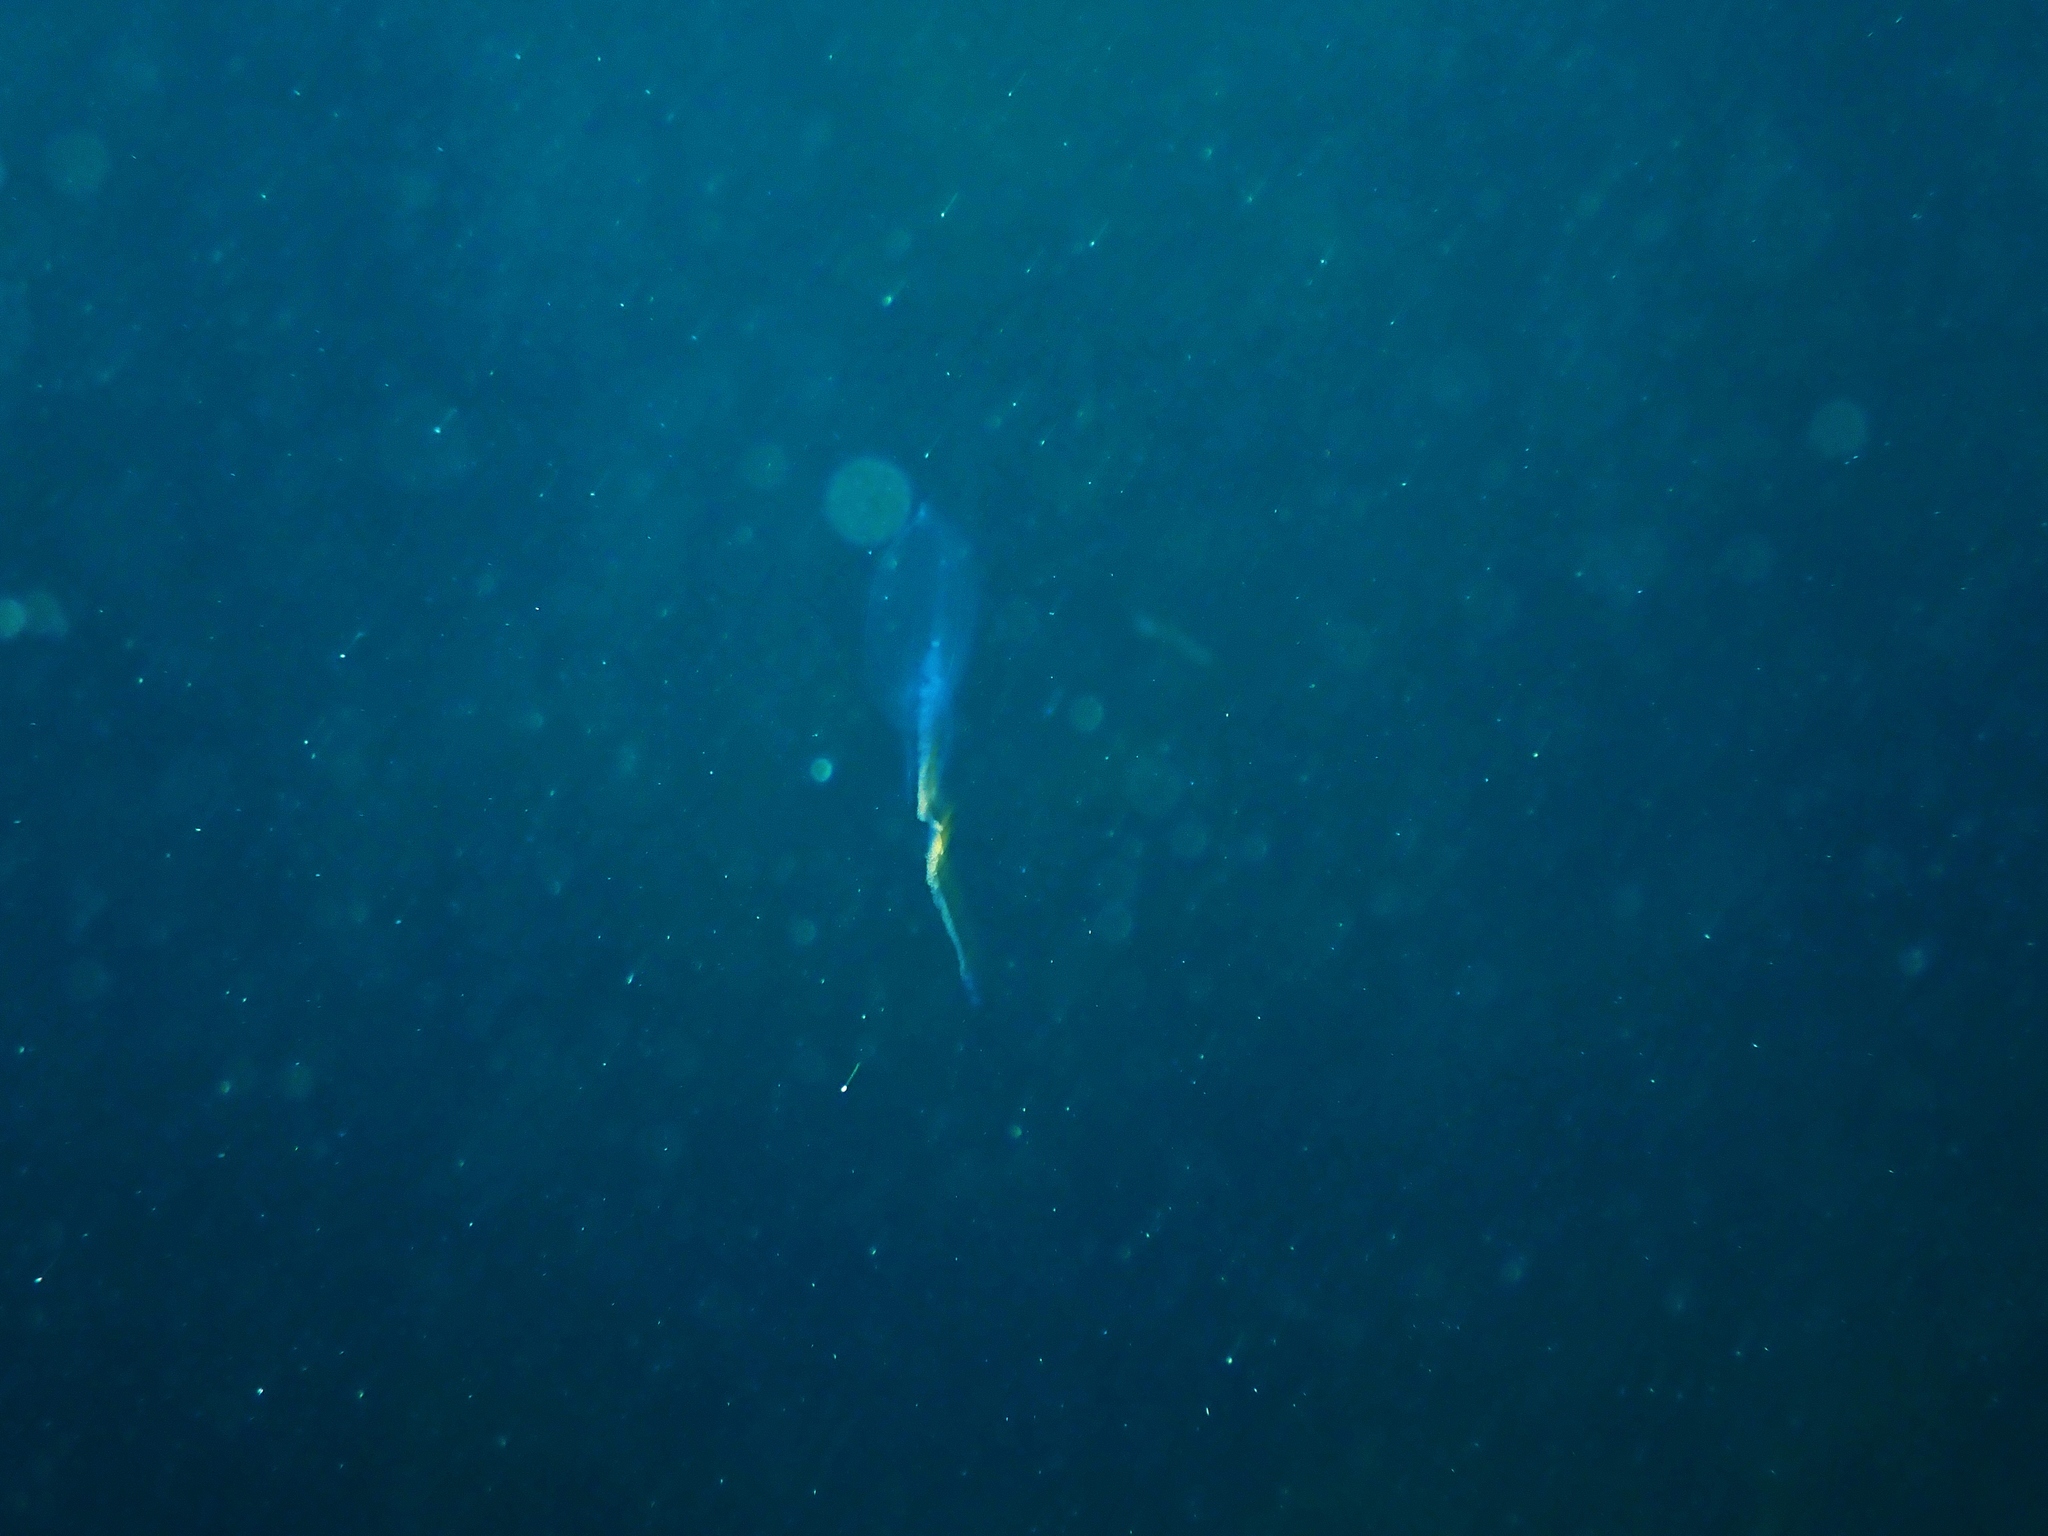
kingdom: Animalia
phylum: Cnidaria
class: Hydrozoa
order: Siphonophorae
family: Diphyidae
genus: Chelophyes
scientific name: Chelophyes appendiculata
